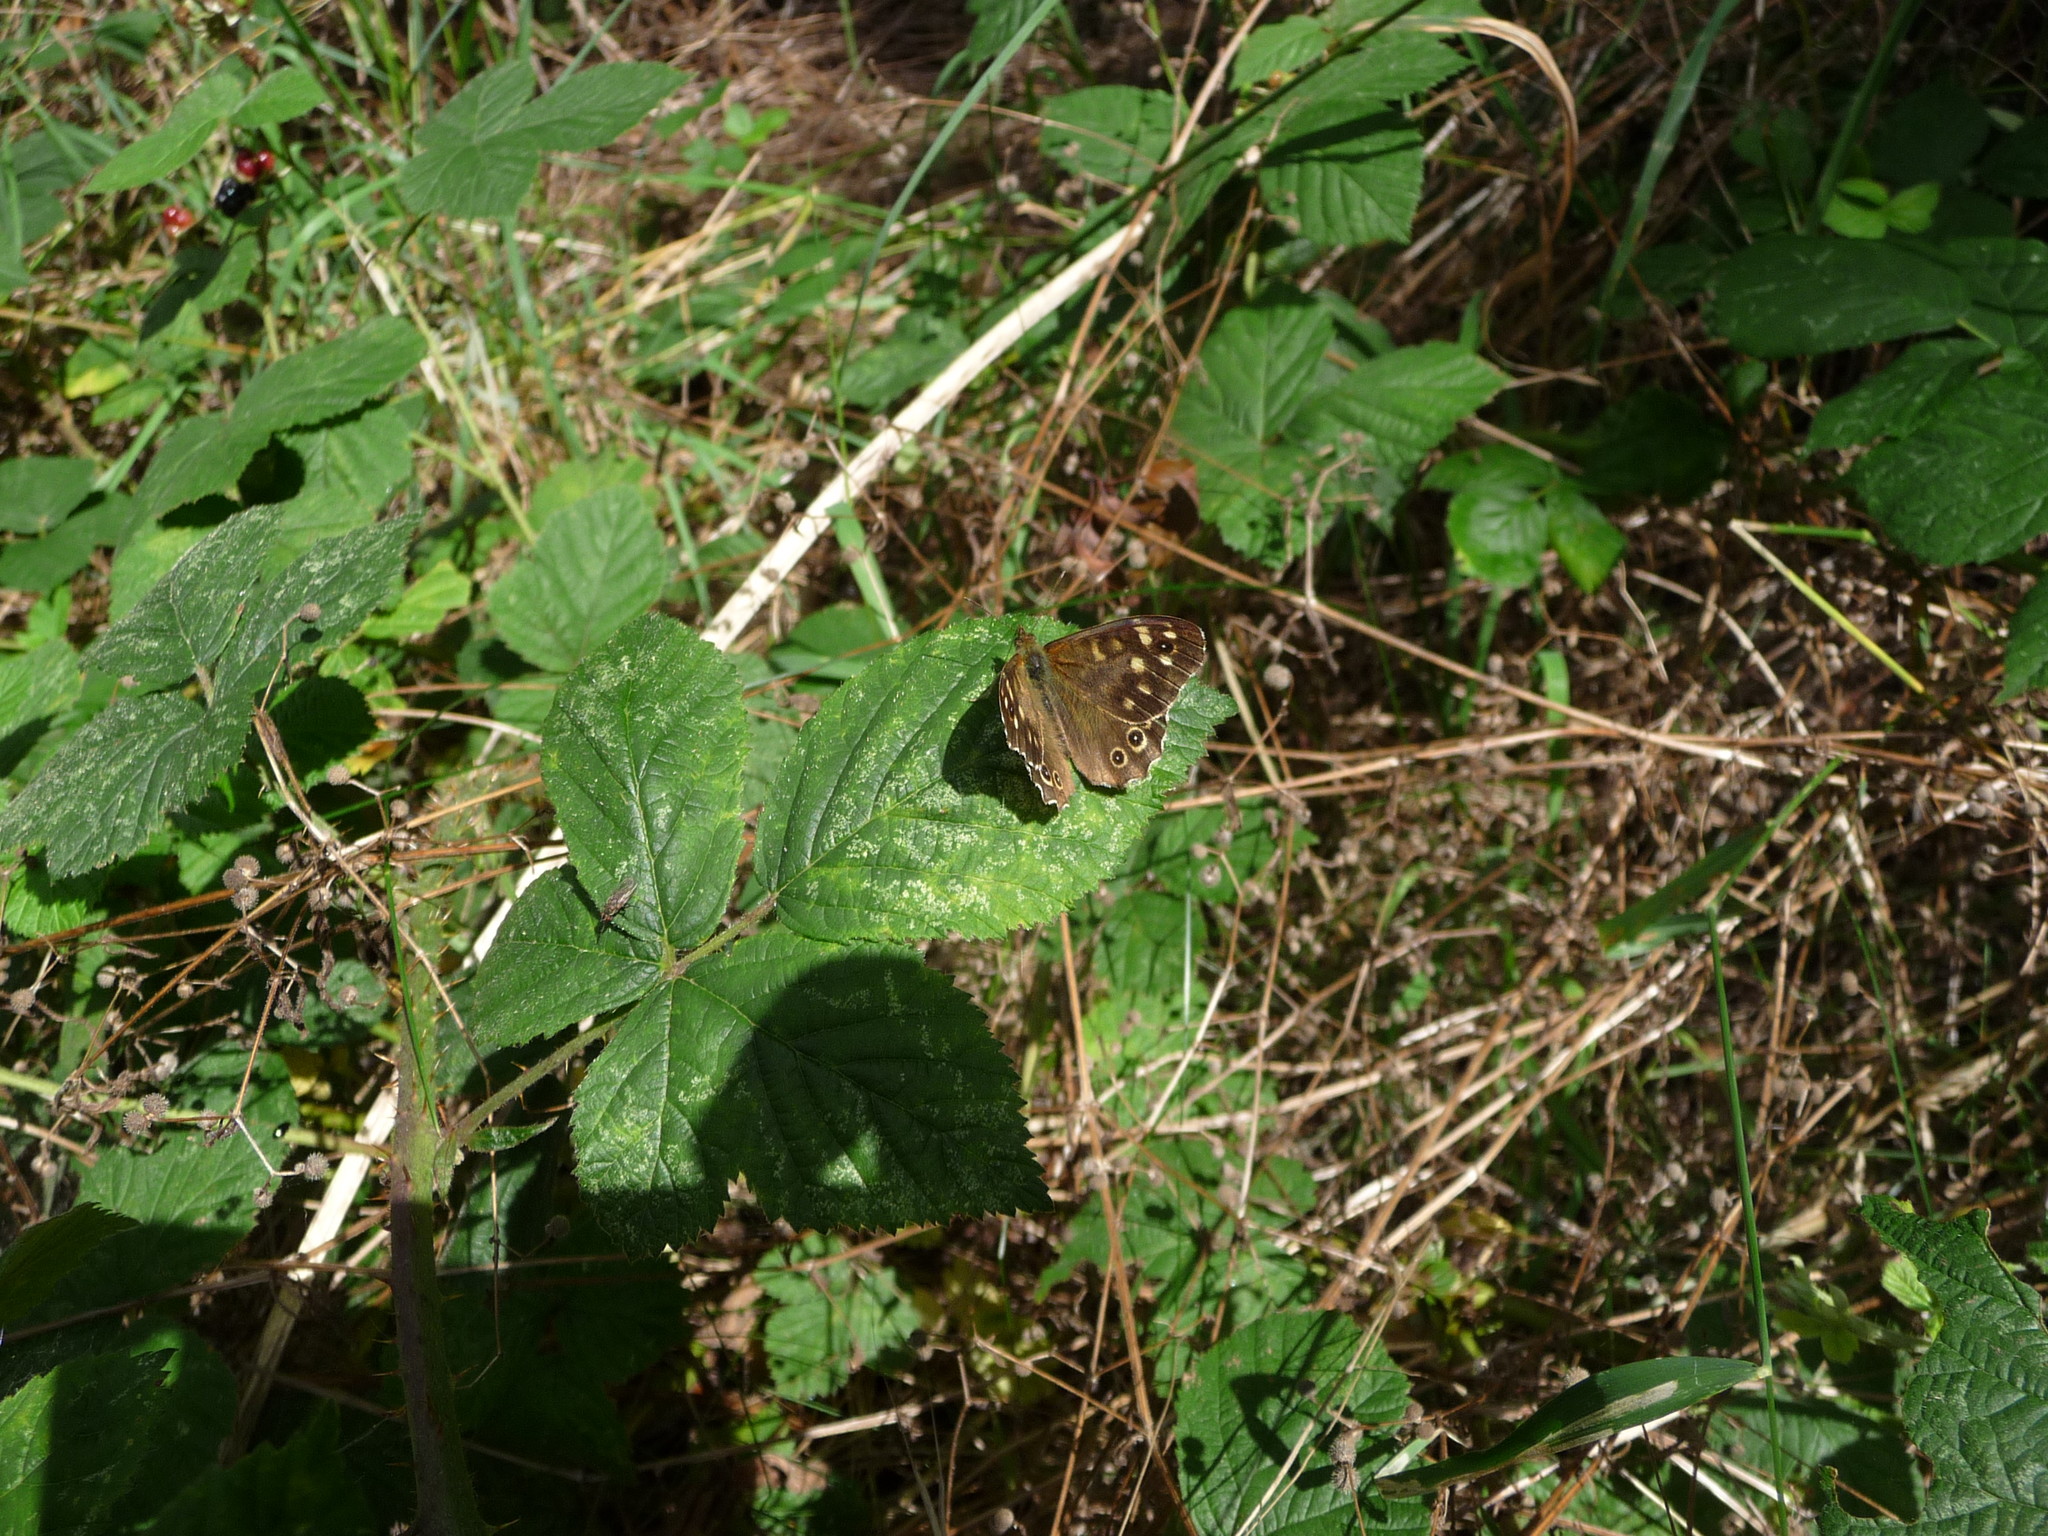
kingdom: Animalia
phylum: Arthropoda
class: Insecta
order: Lepidoptera
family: Nymphalidae
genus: Pararge
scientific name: Pararge aegeria
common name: Speckled wood
